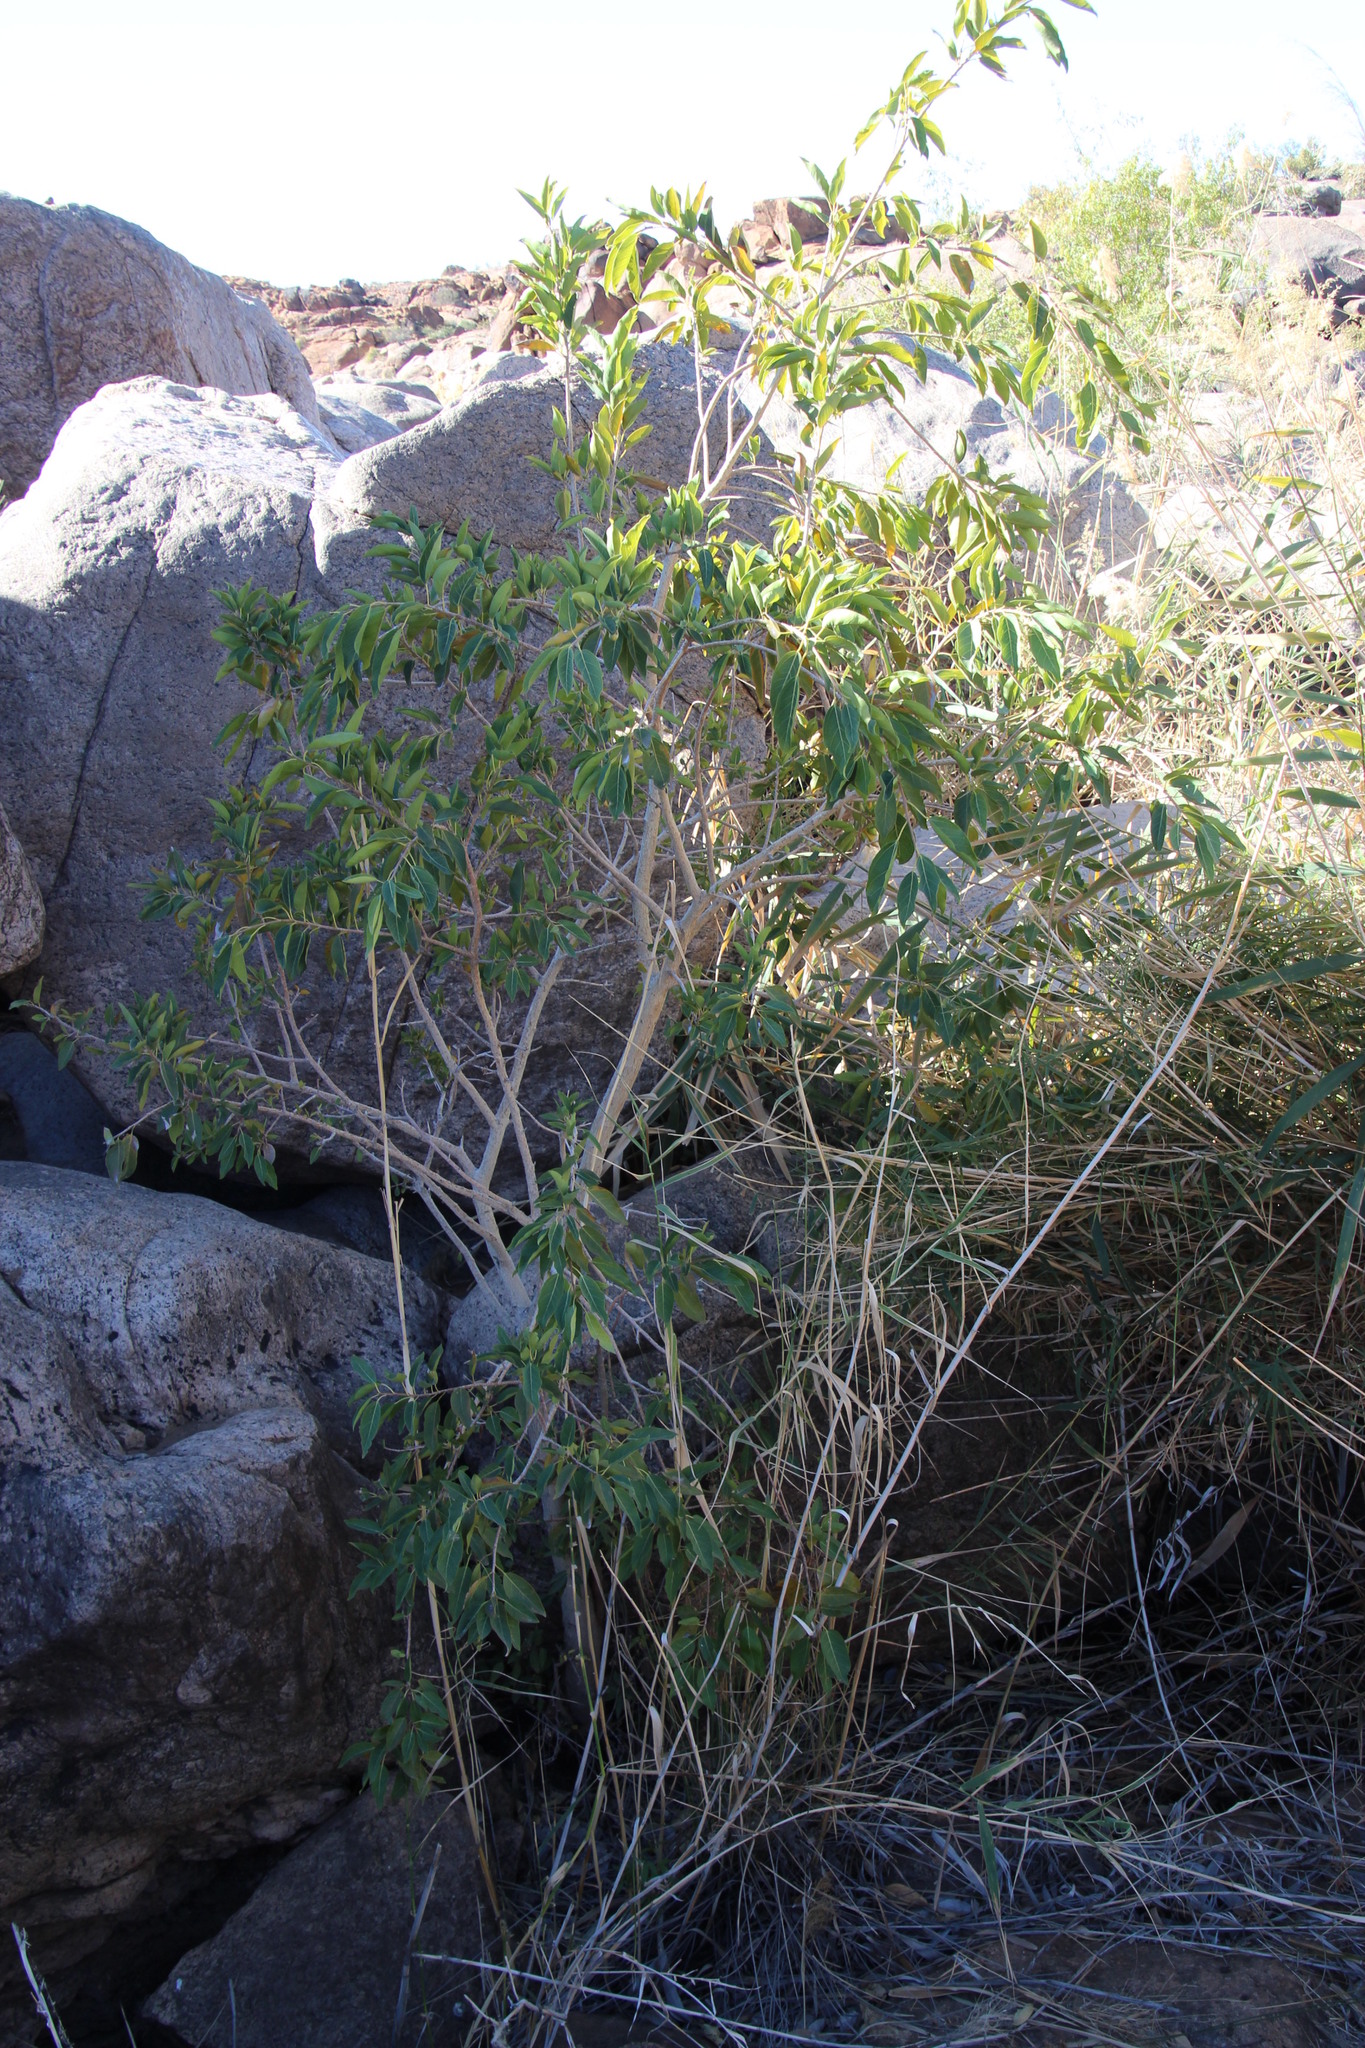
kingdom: Plantae
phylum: Tracheophyta
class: Magnoliopsida
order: Rosales
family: Moraceae
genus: Ficus
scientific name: Ficus cordata
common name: Namaqua rock fig
